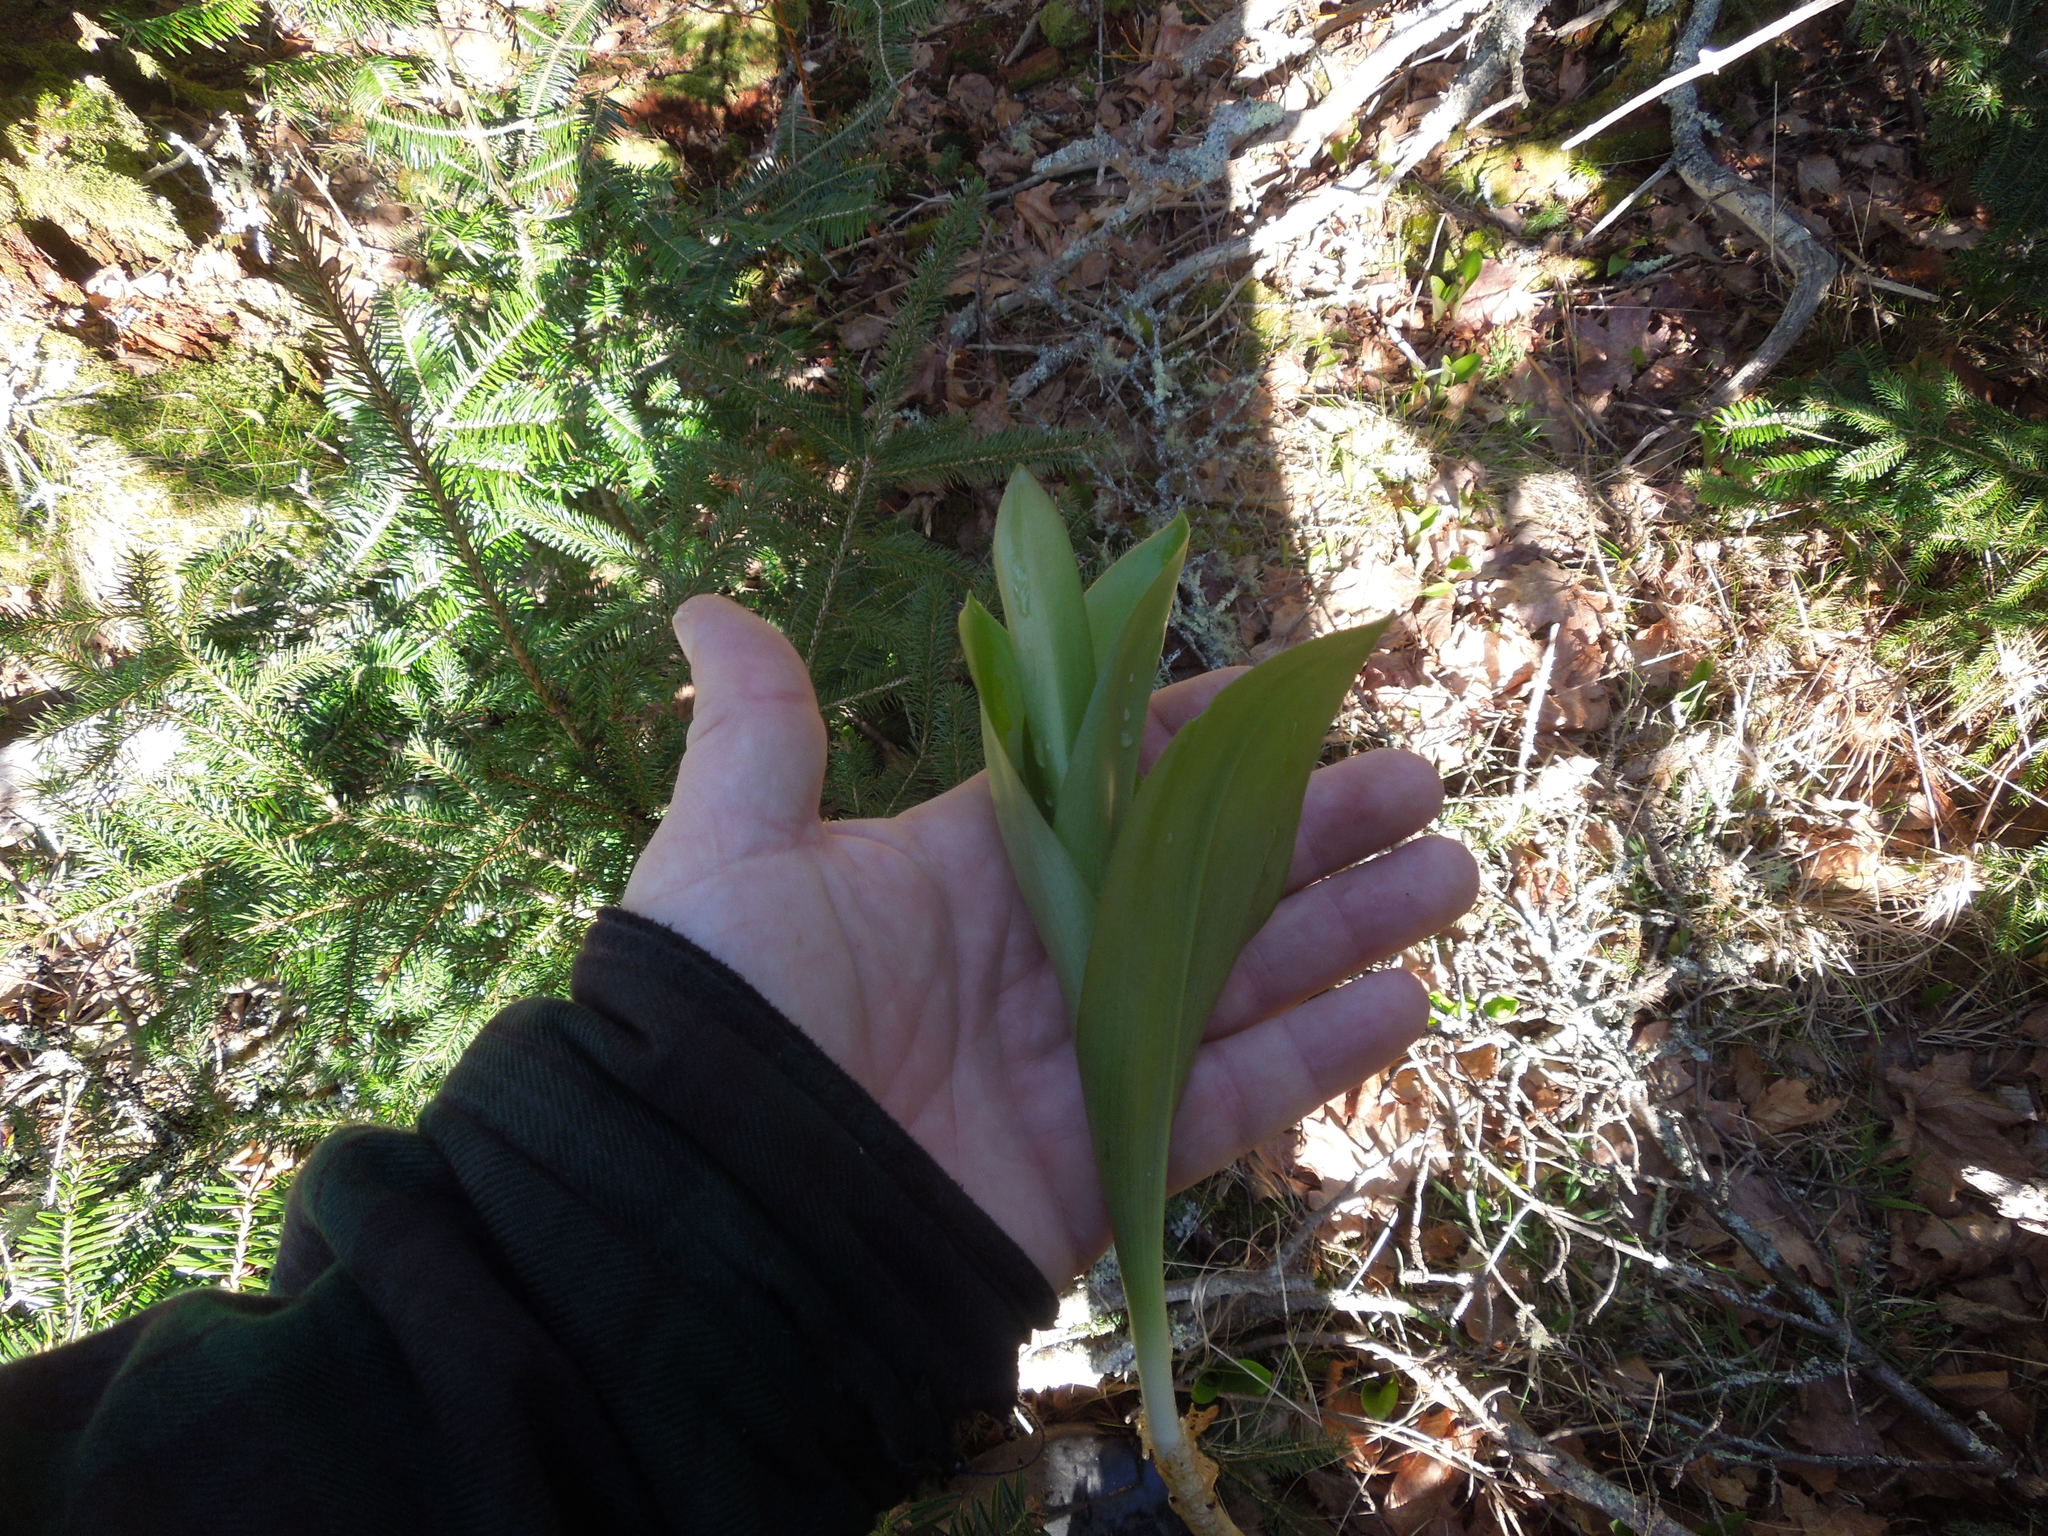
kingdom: Plantae
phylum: Tracheophyta
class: Liliopsida
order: Liliales
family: Liliaceae
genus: Clintonia
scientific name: Clintonia borealis
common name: Yellow clintonia
